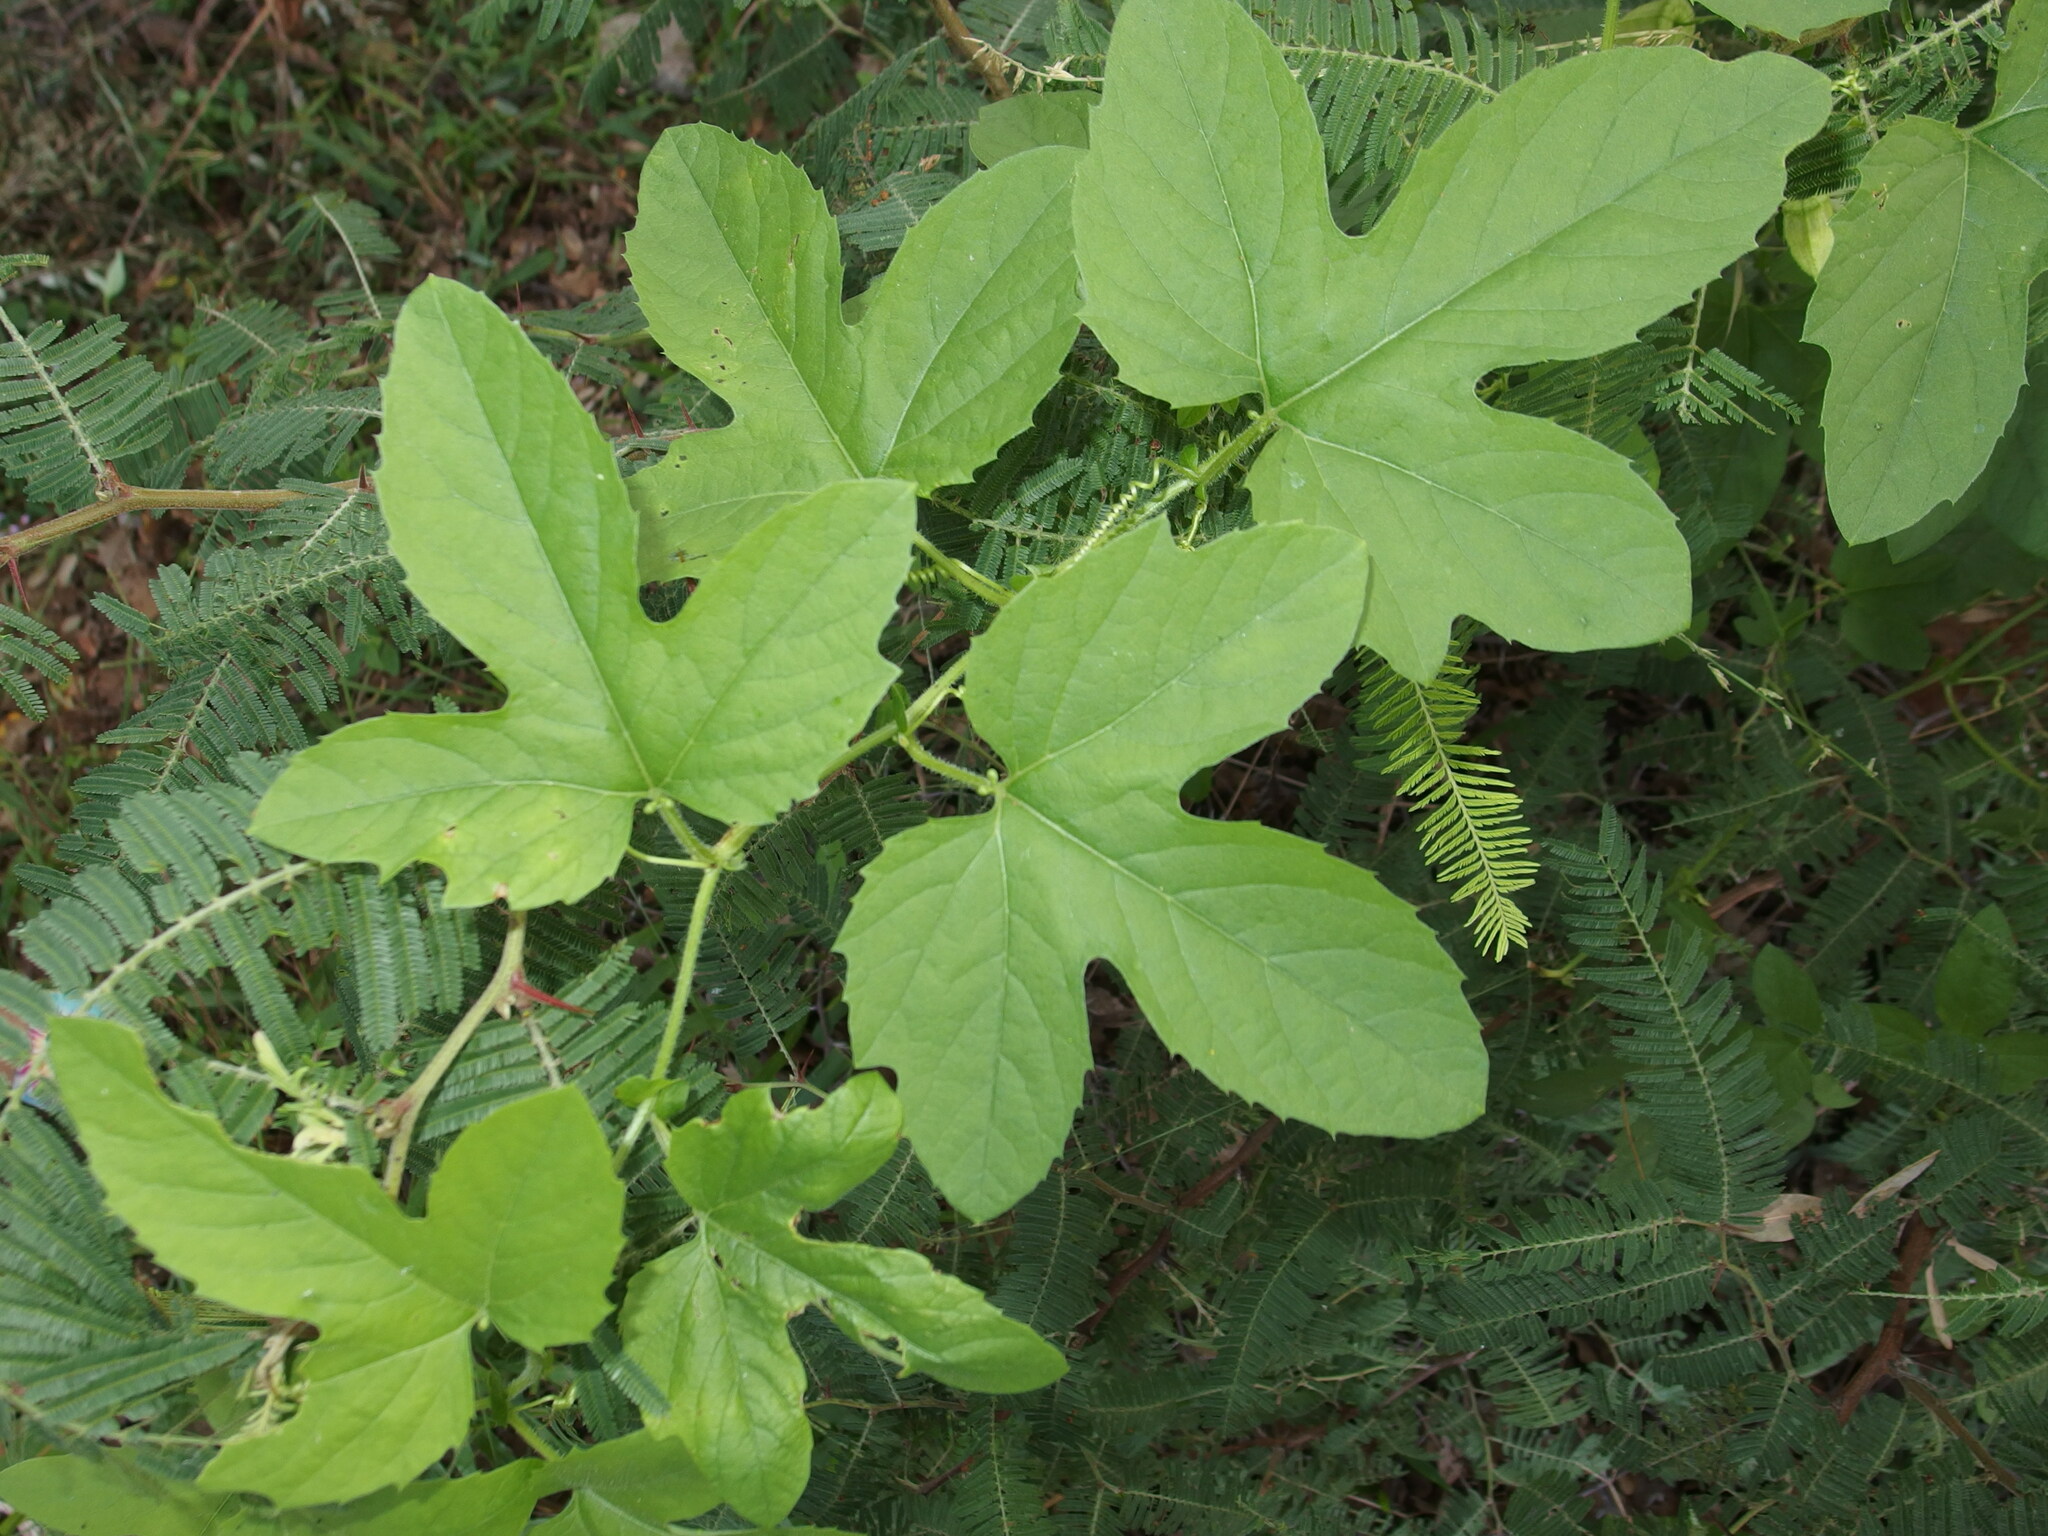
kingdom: Plantae
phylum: Tracheophyta
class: Magnoliopsida
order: Malpighiales
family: Passifloraceae
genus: Passiflora
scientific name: Passiflora bryonioides
